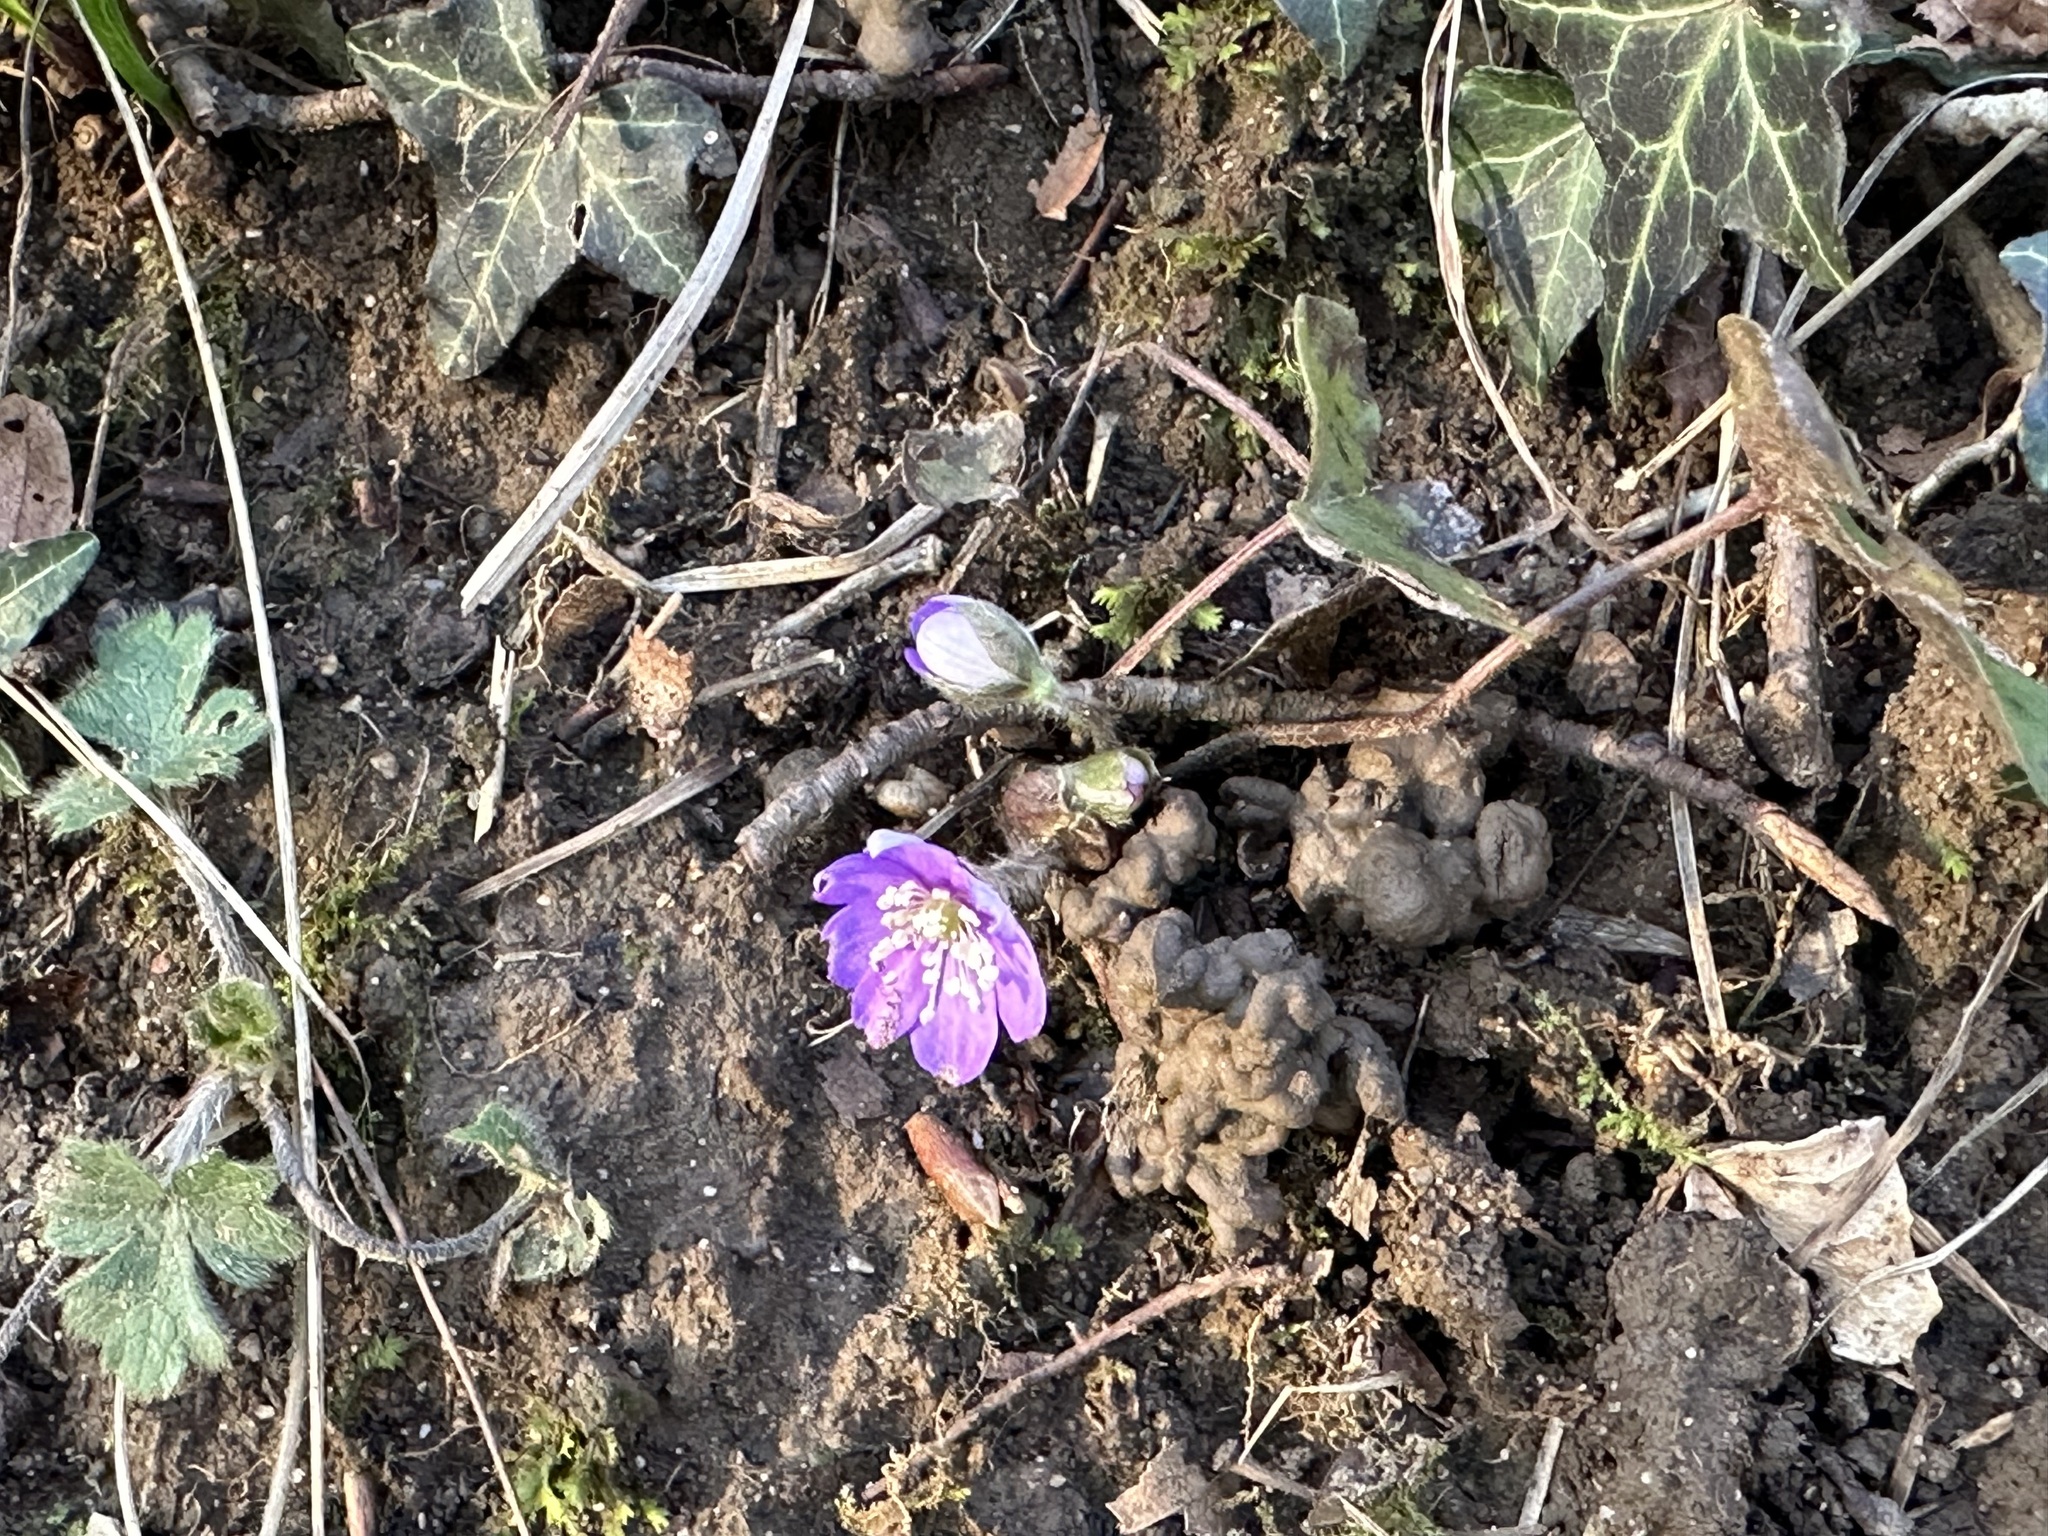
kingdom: Plantae
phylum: Tracheophyta
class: Magnoliopsida
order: Ranunculales
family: Ranunculaceae
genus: Hepatica
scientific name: Hepatica nobilis
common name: Liverleaf
